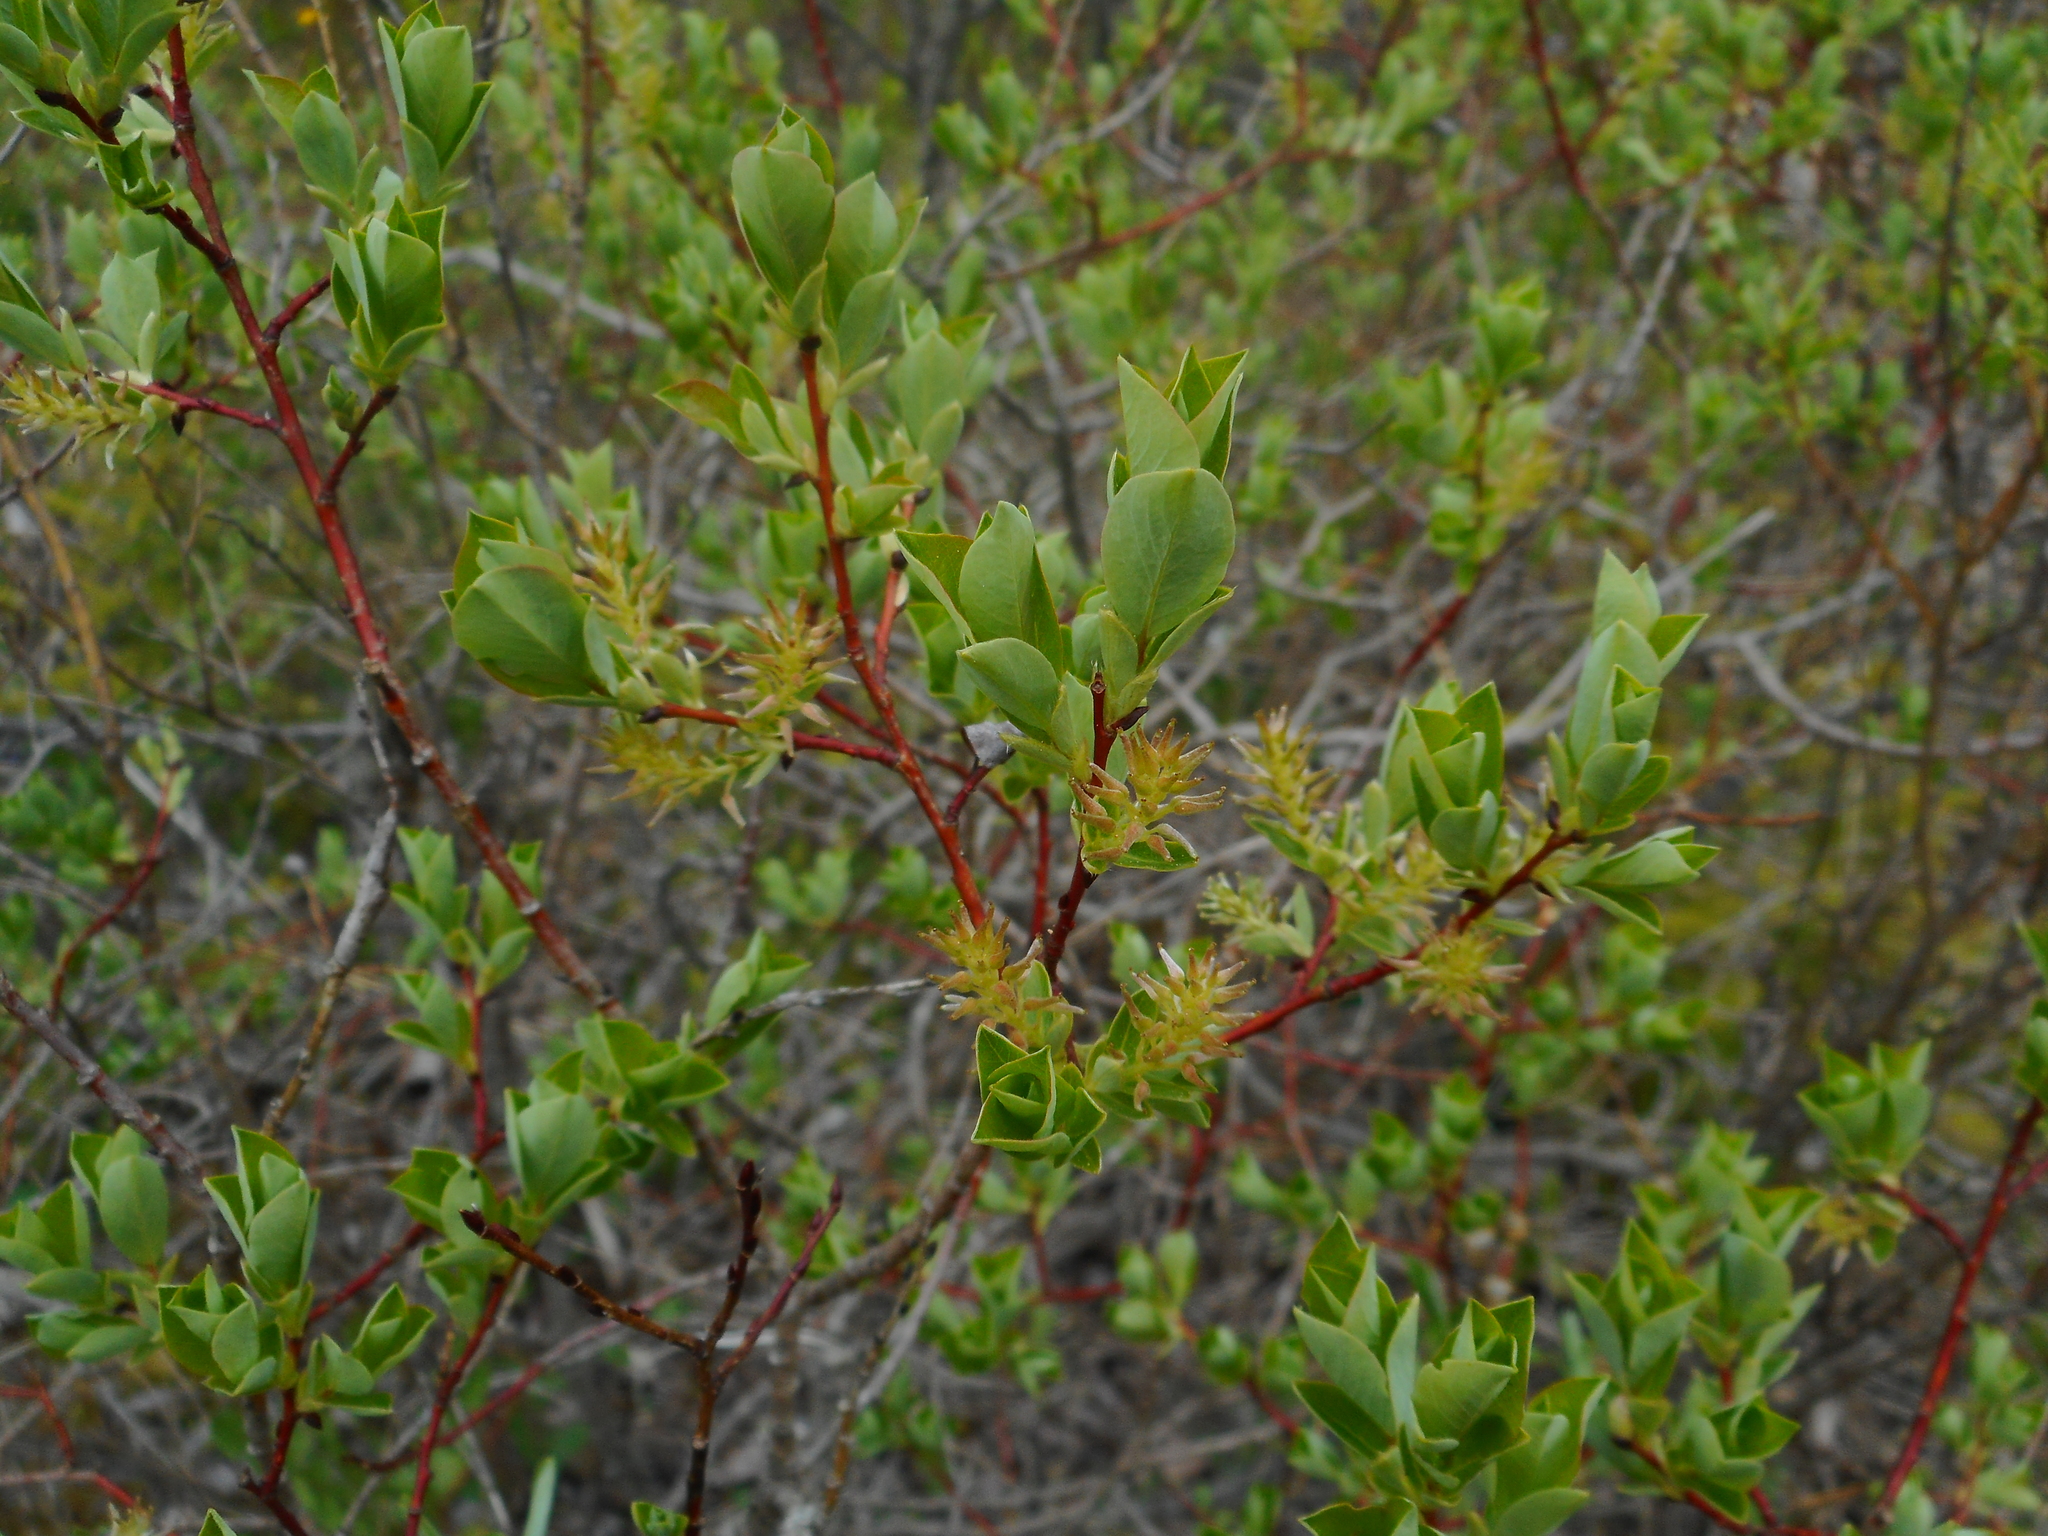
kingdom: Plantae
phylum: Tracheophyta
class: Magnoliopsida
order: Malpighiales
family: Salicaceae
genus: Salix
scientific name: Salix starkeana
